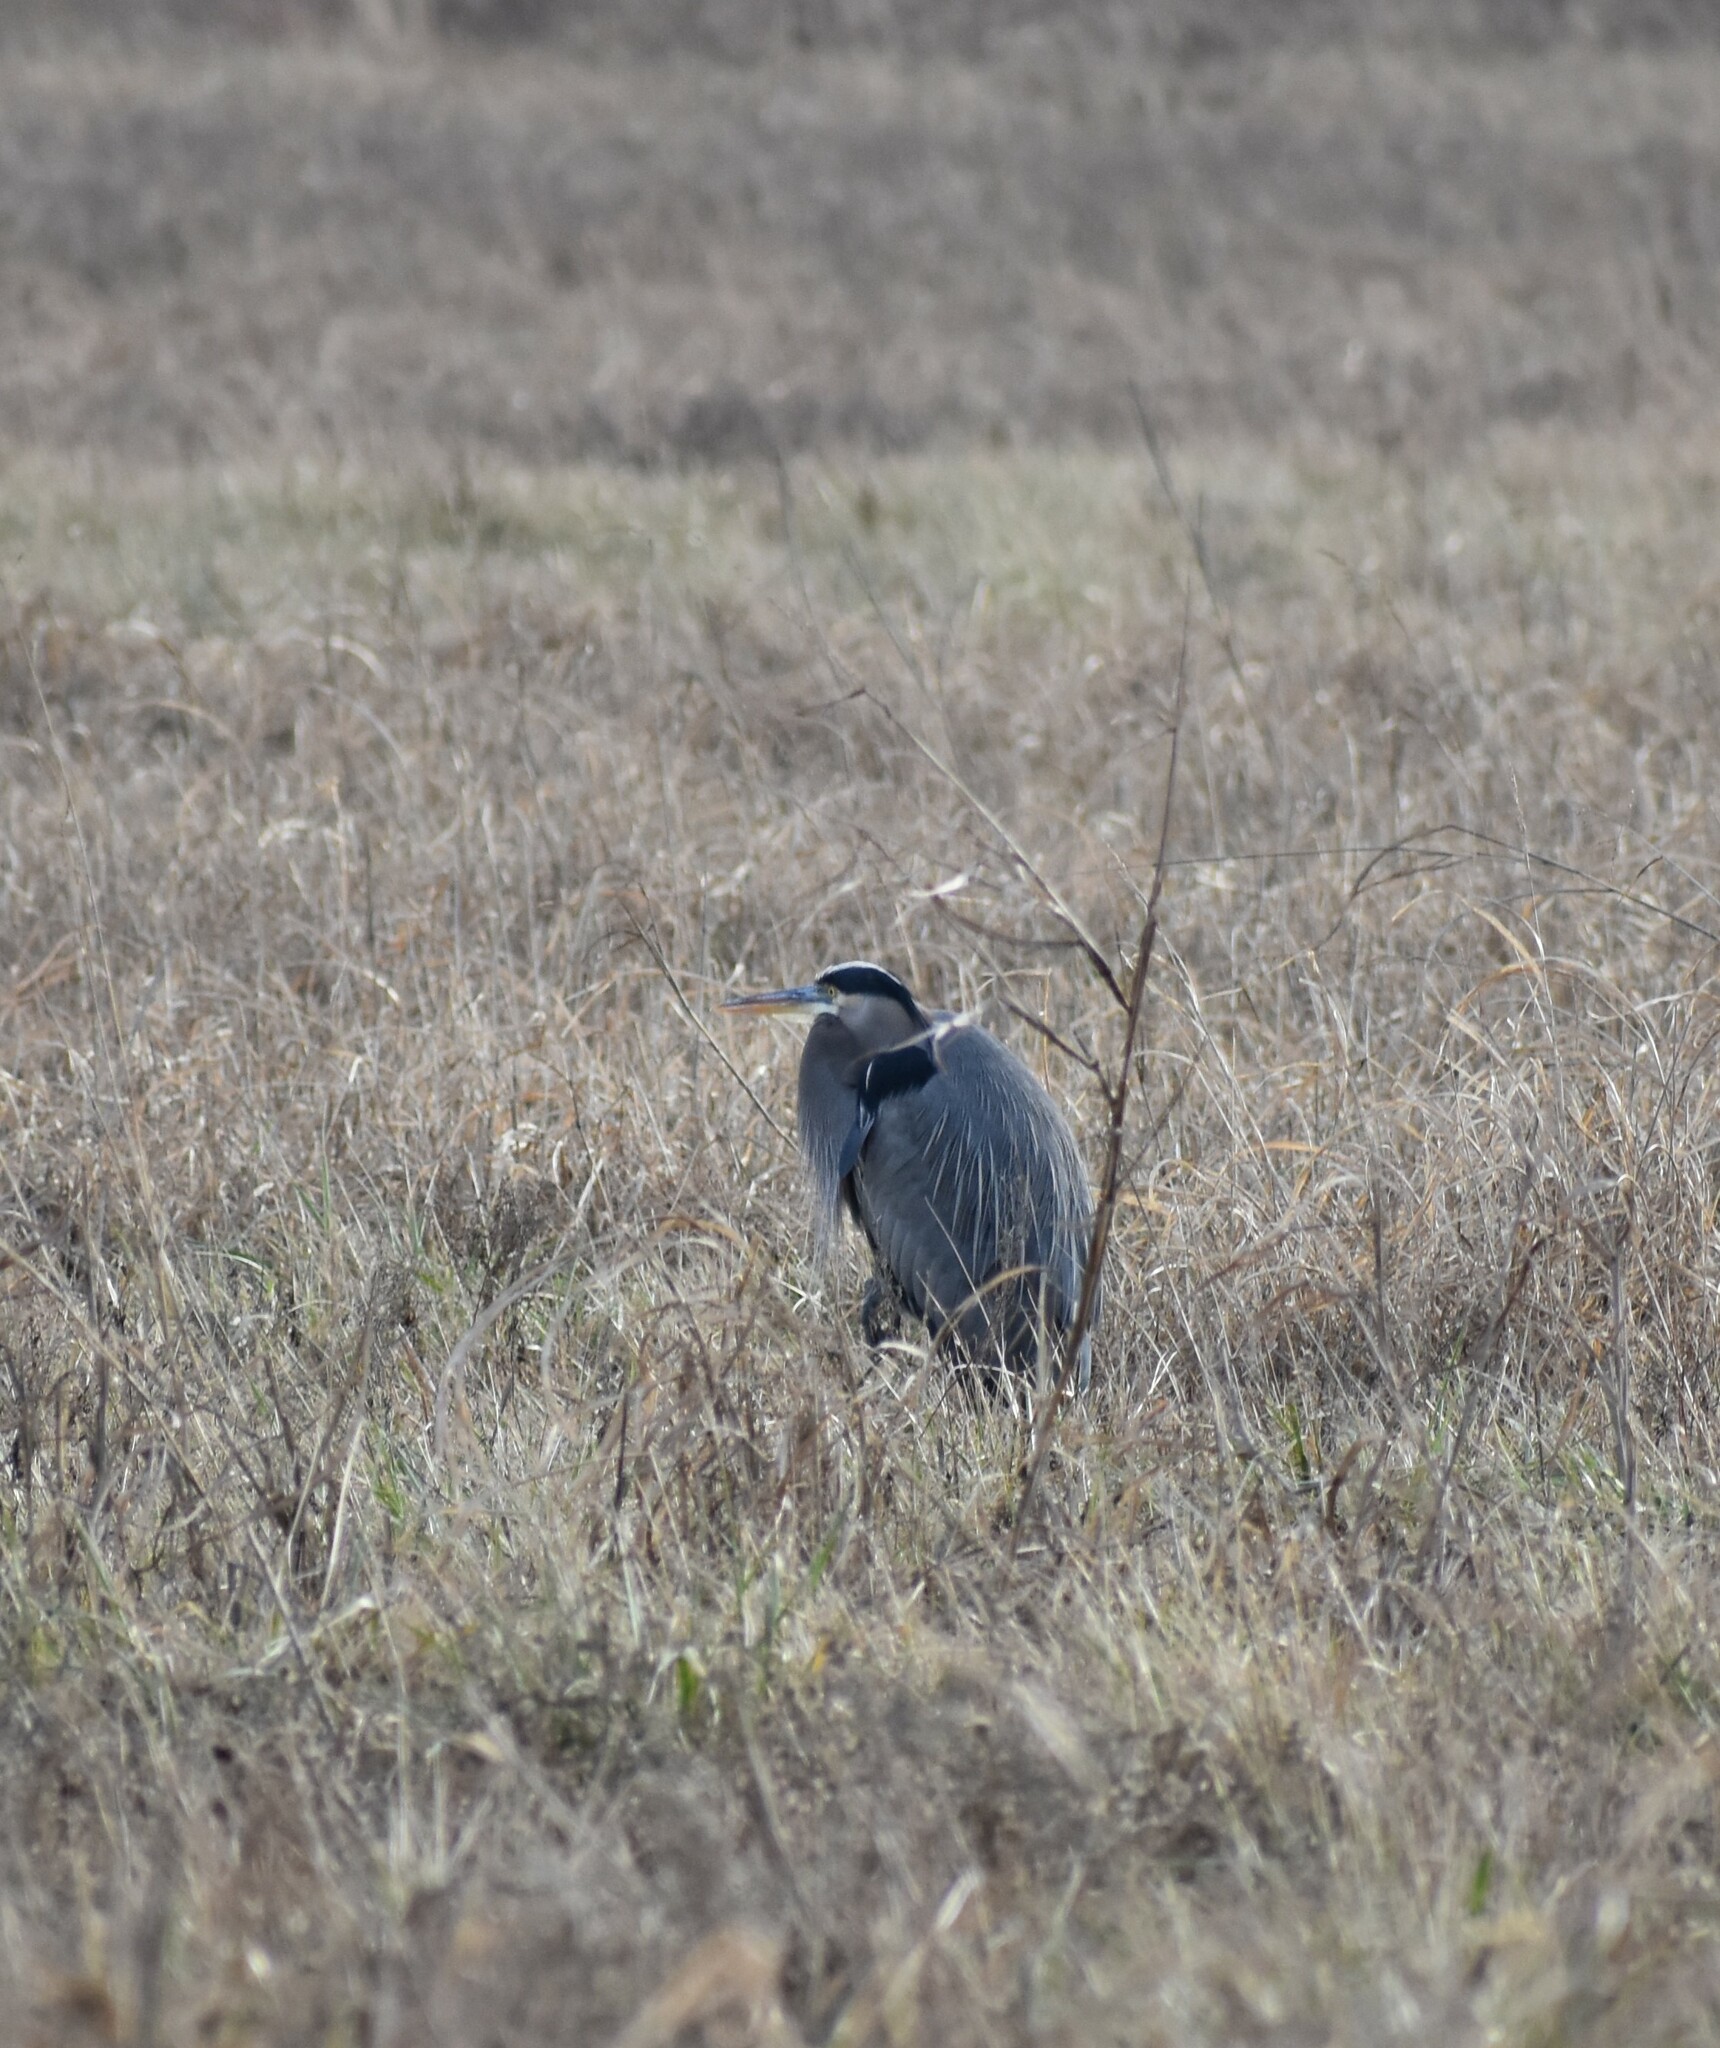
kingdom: Animalia
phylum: Chordata
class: Aves
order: Pelecaniformes
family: Ardeidae
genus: Ardea
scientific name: Ardea herodias
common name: Great blue heron
